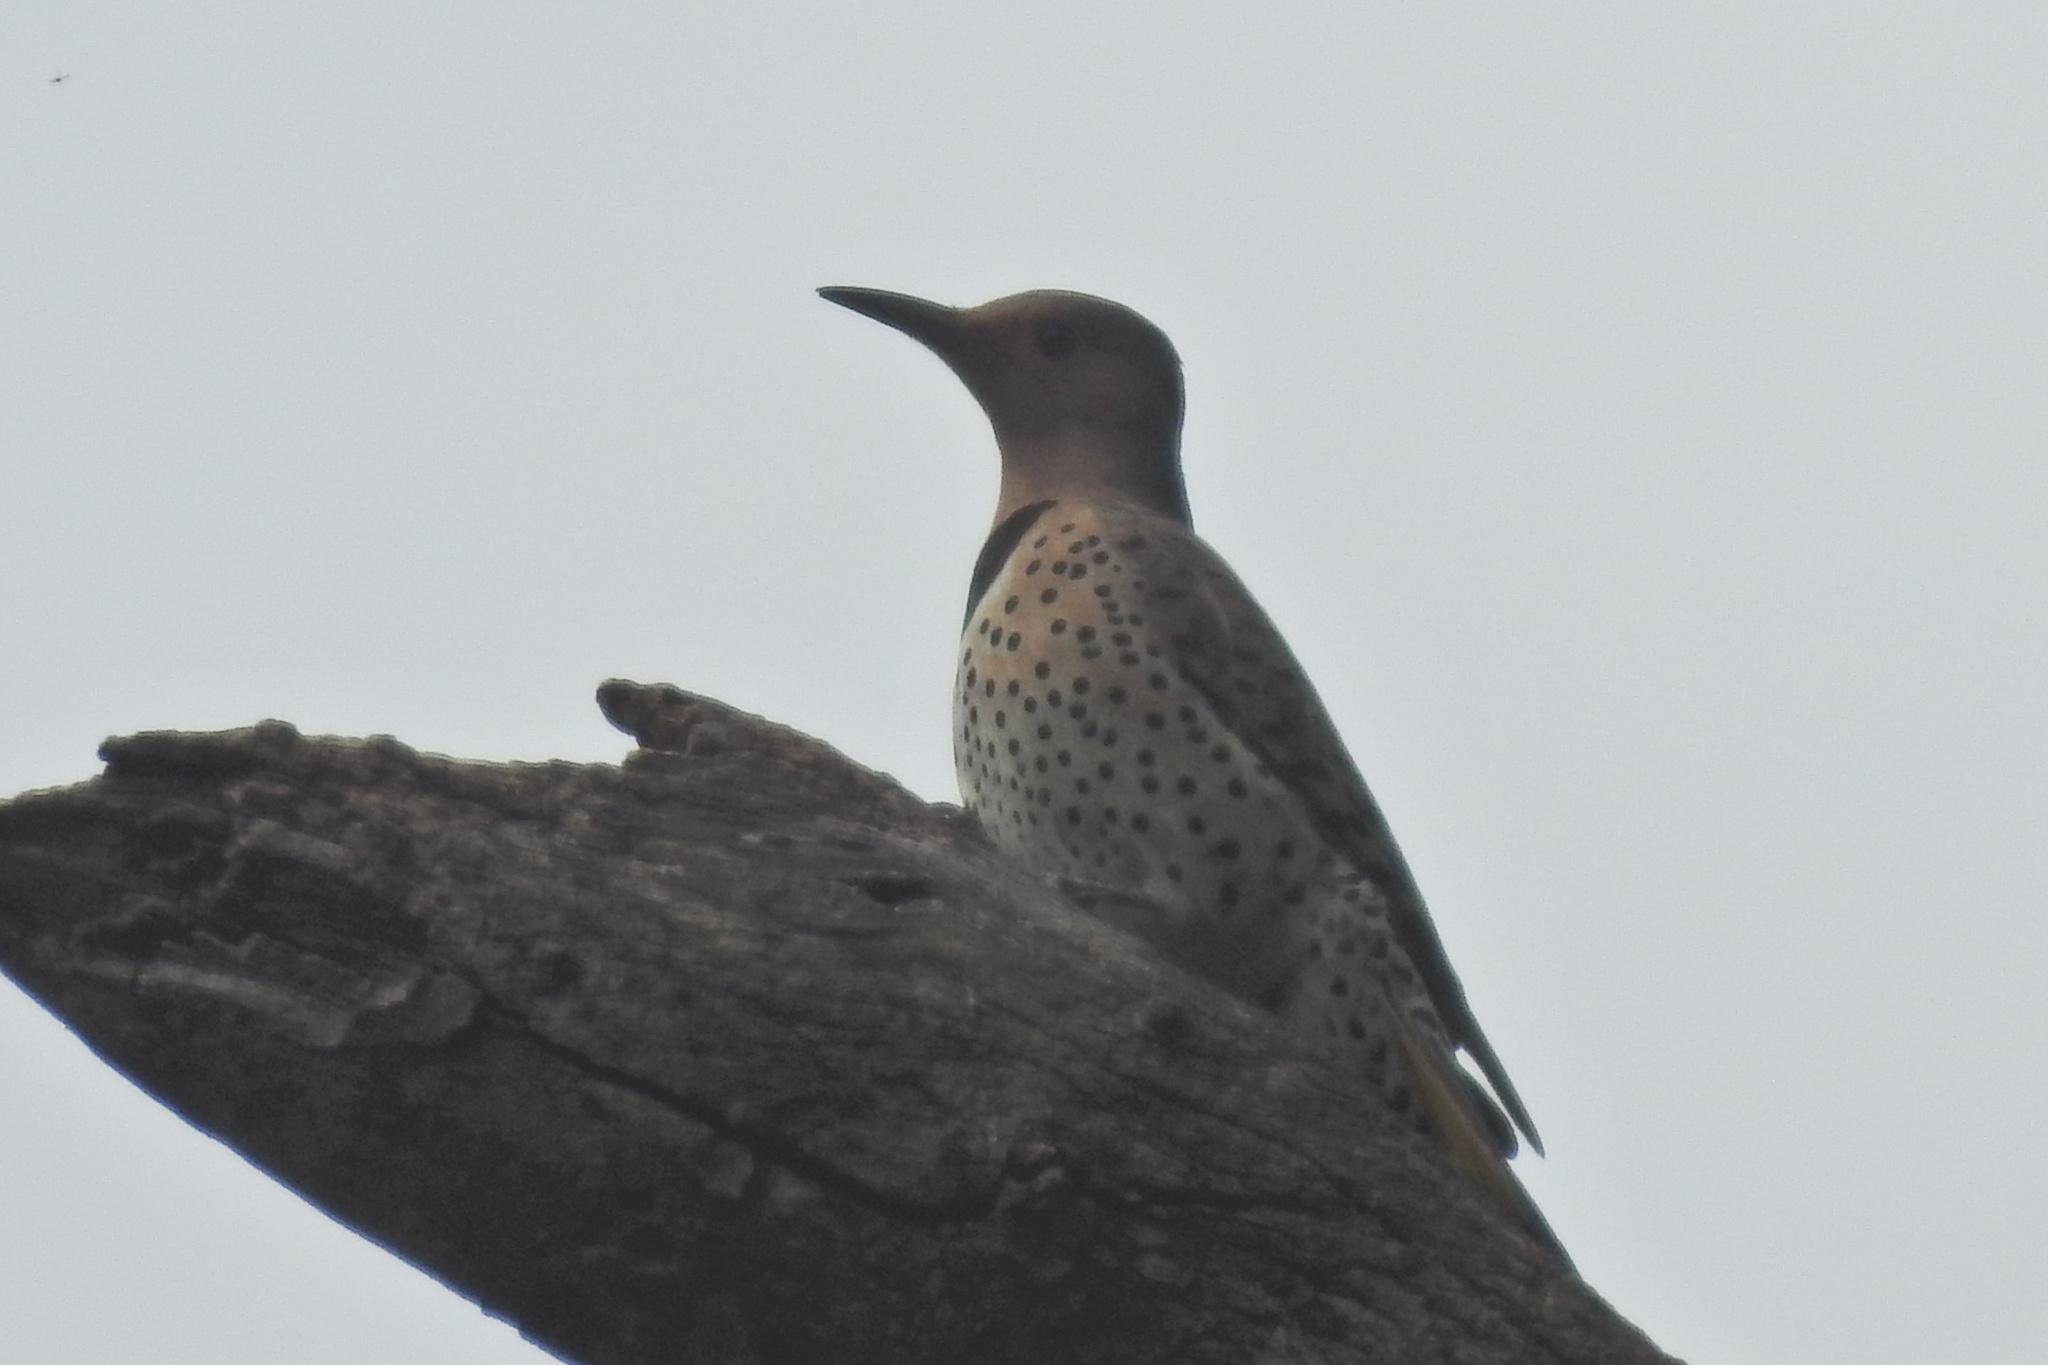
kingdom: Animalia
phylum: Chordata
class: Aves
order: Piciformes
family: Picidae
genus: Colaptes
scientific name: Colaptes auratus
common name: Northern flicker
